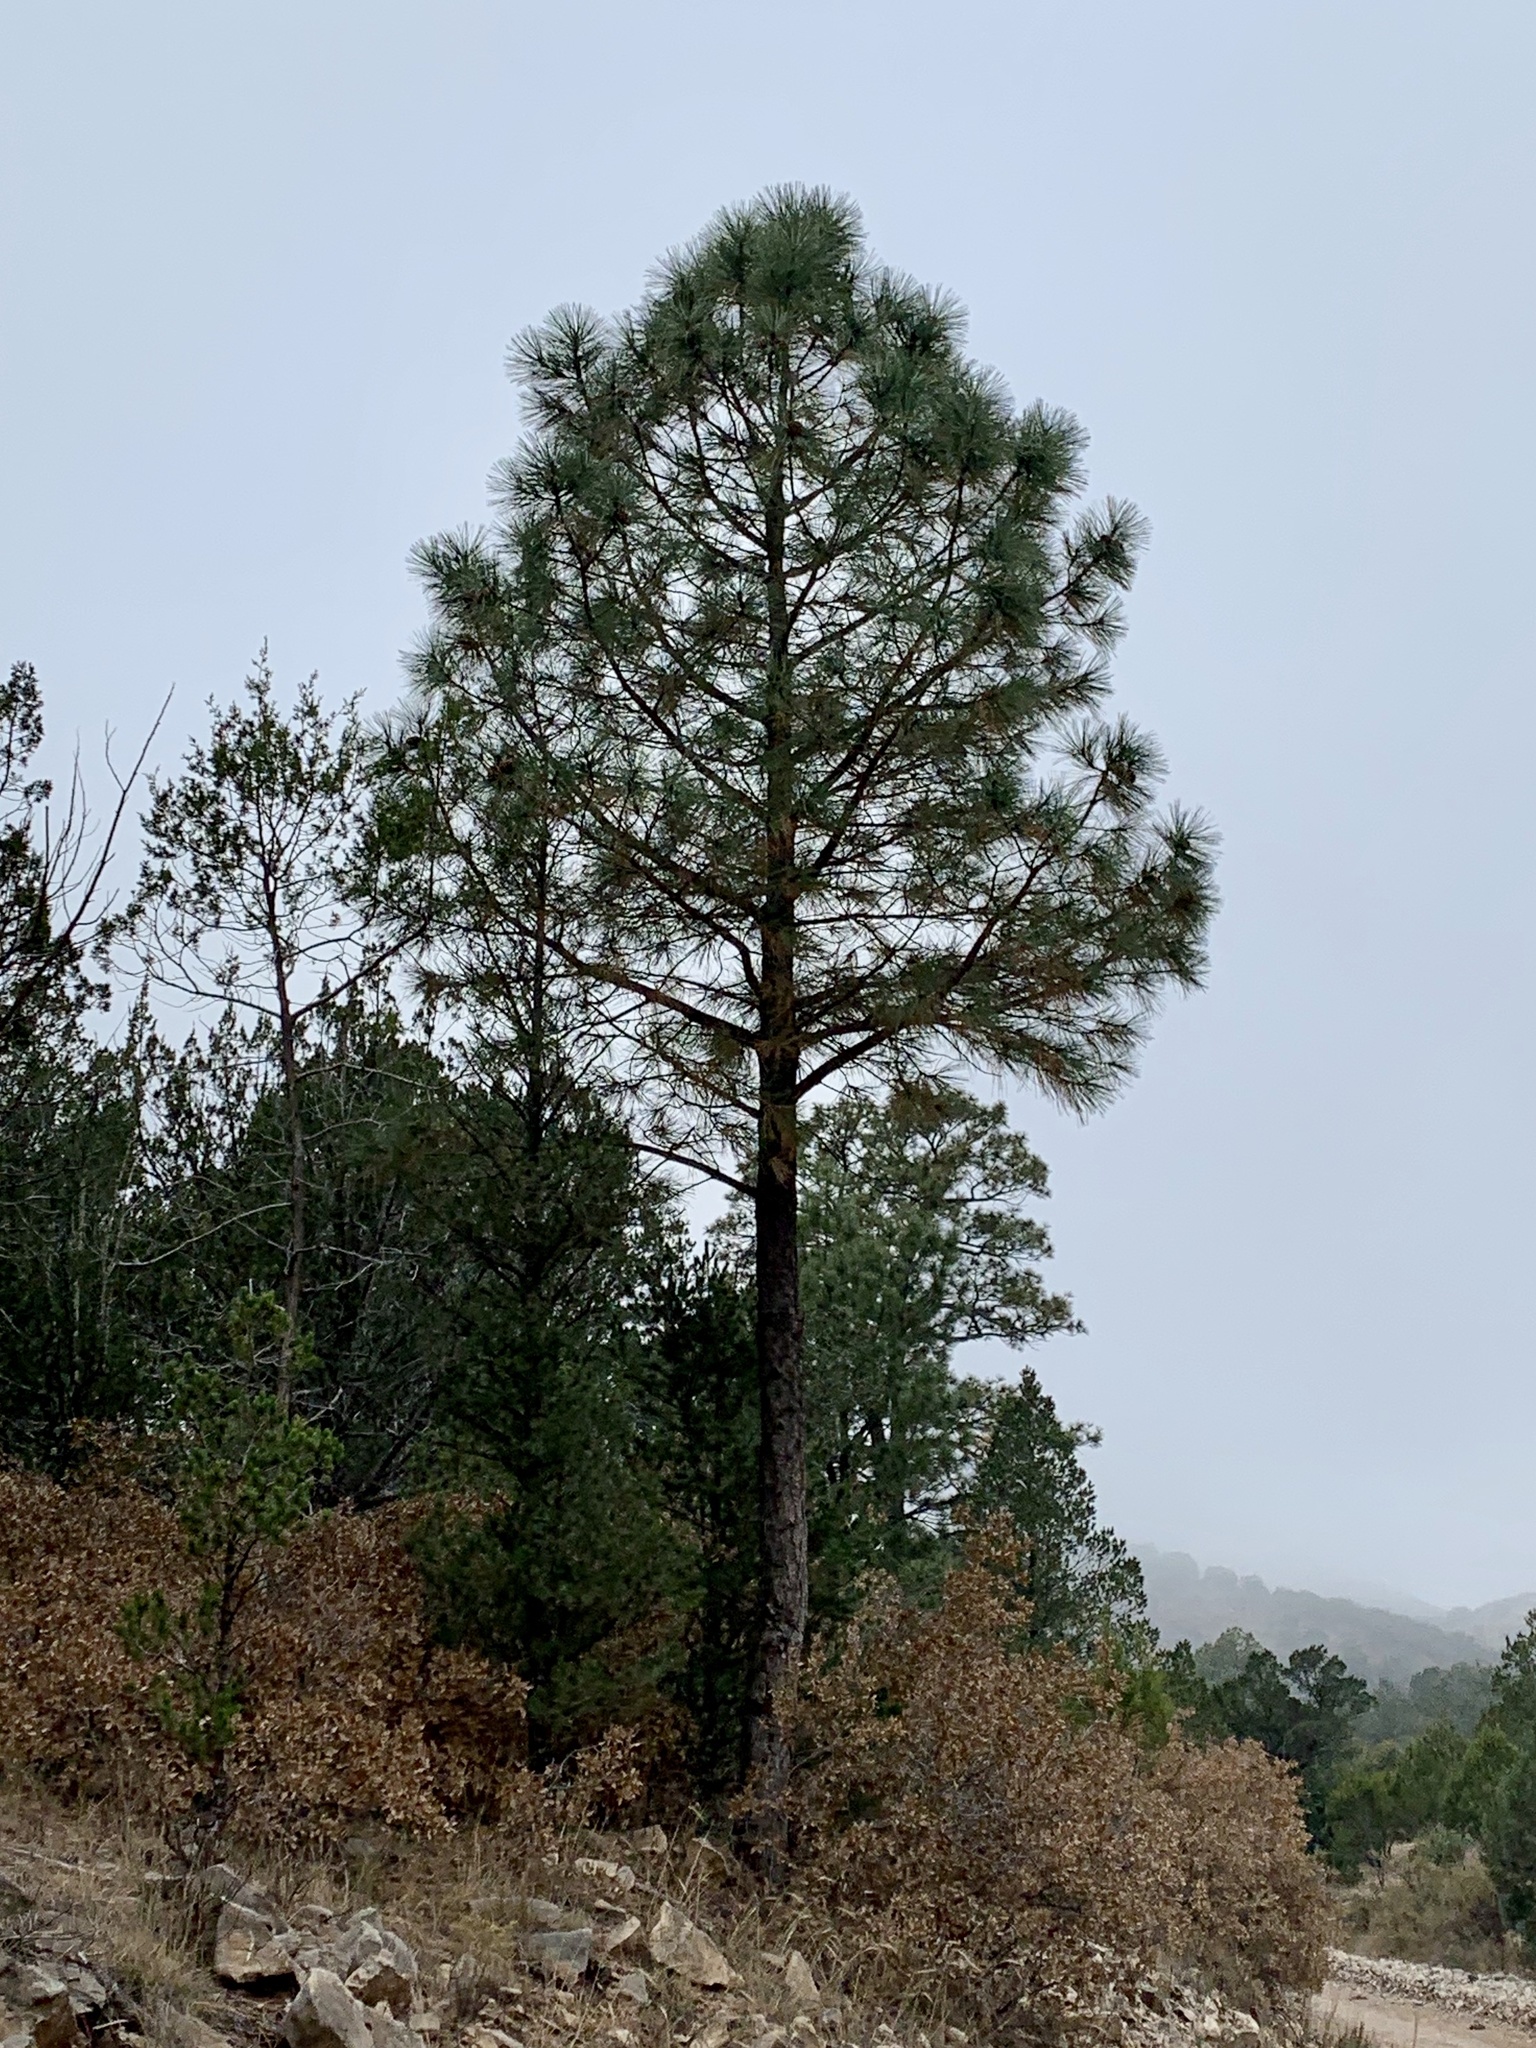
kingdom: Plantae
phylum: Tracheophyta
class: Pinopsida
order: Pinales
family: Pinaceae
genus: Pinus
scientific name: Pinus ponderosa
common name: Western yellow-pine
